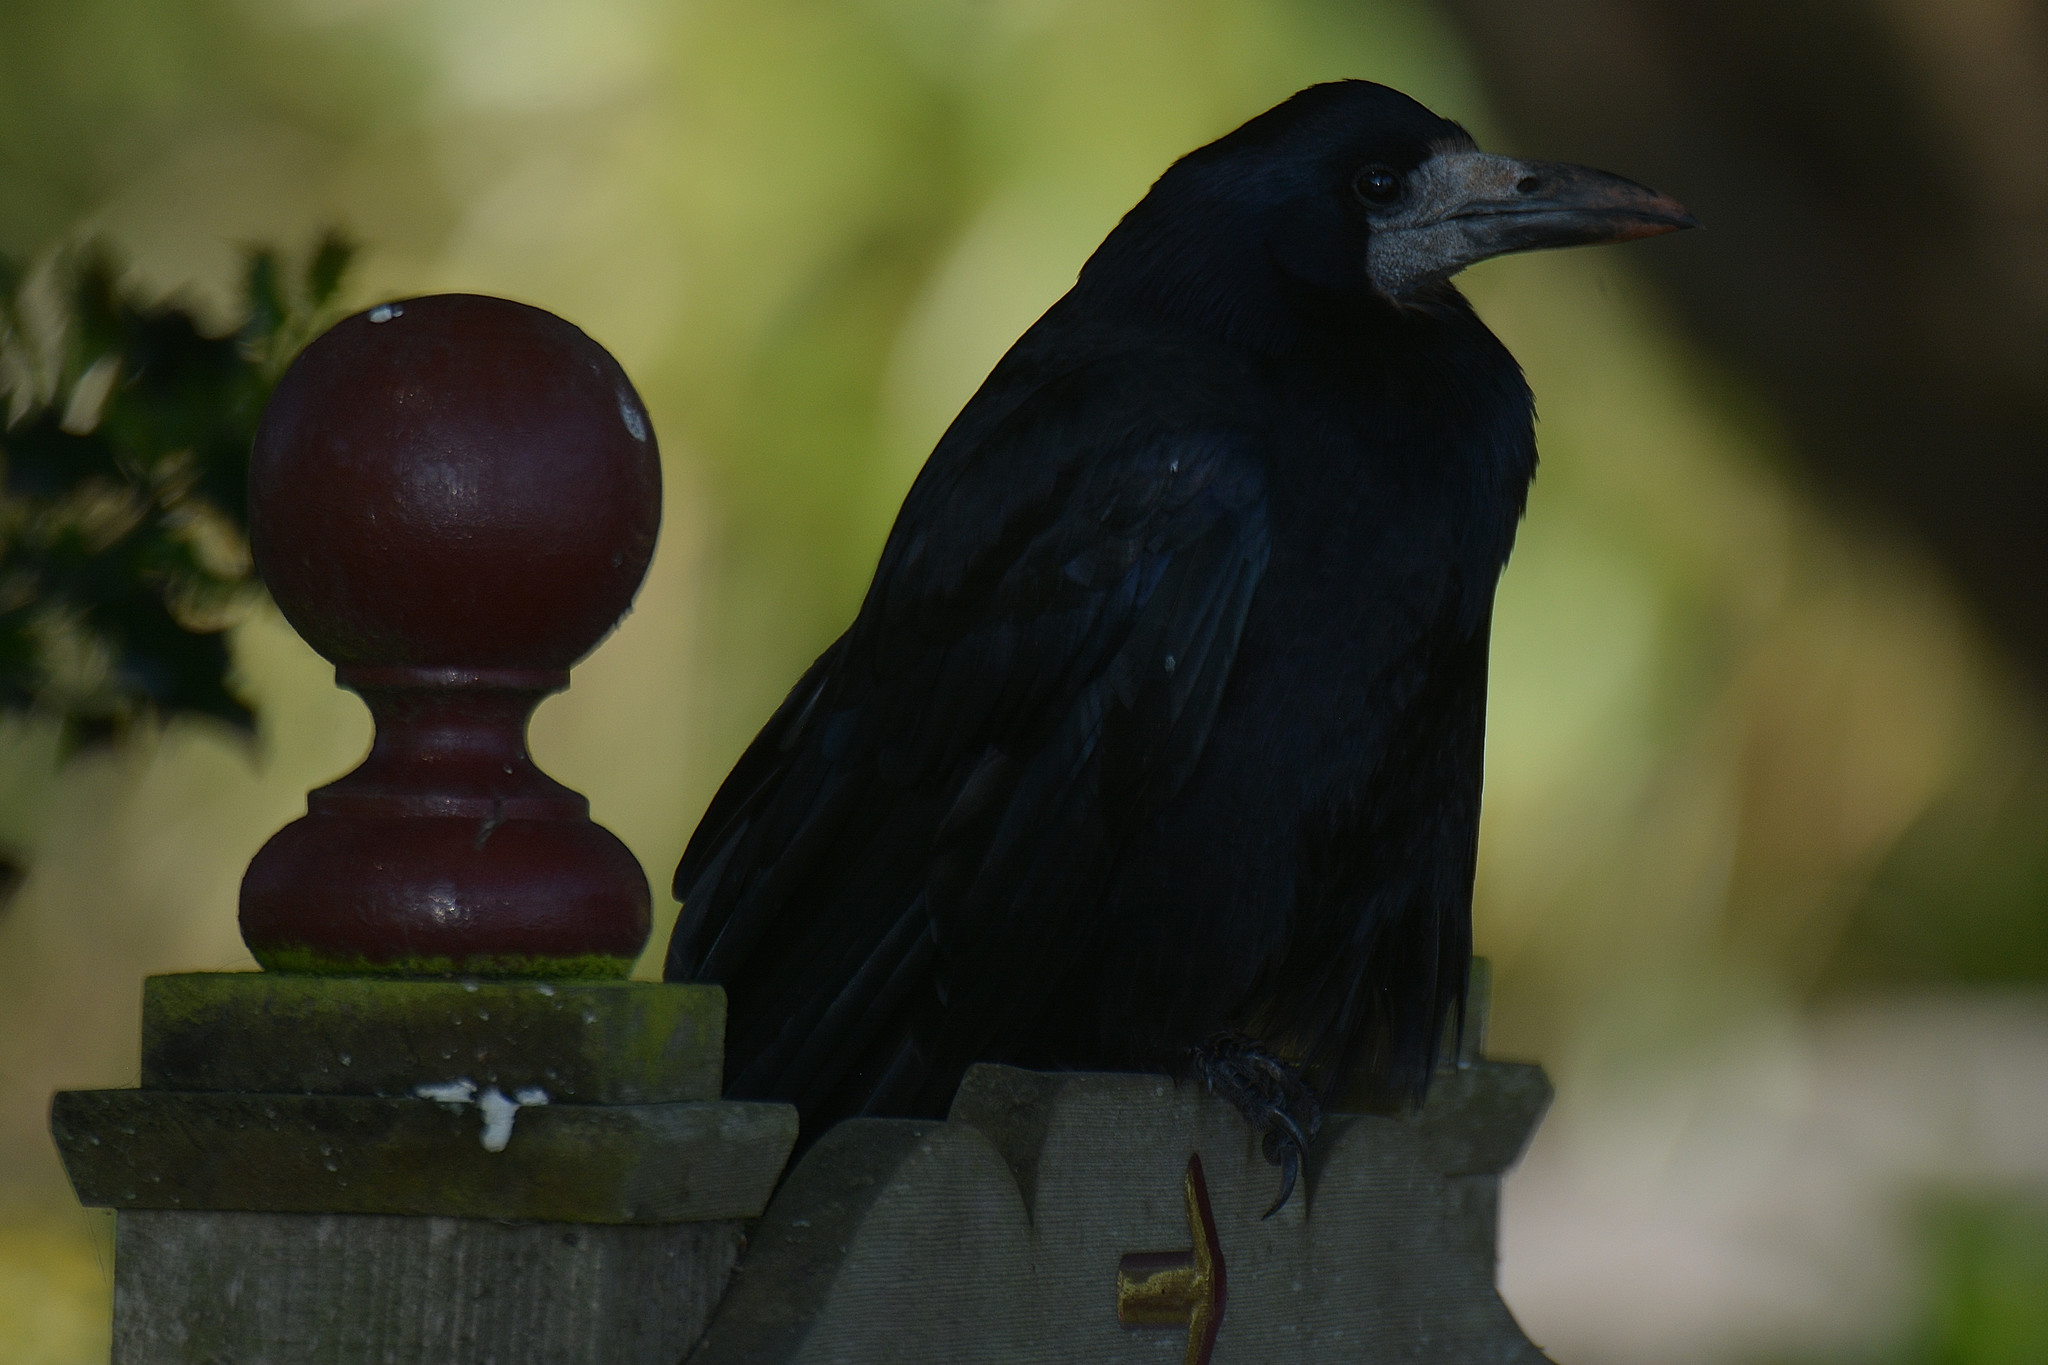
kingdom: Animalia
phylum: Chordata
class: Aves
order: Passeriformes
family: Corvidae
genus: Corvus
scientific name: Corvus frugilegus
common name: Rook
